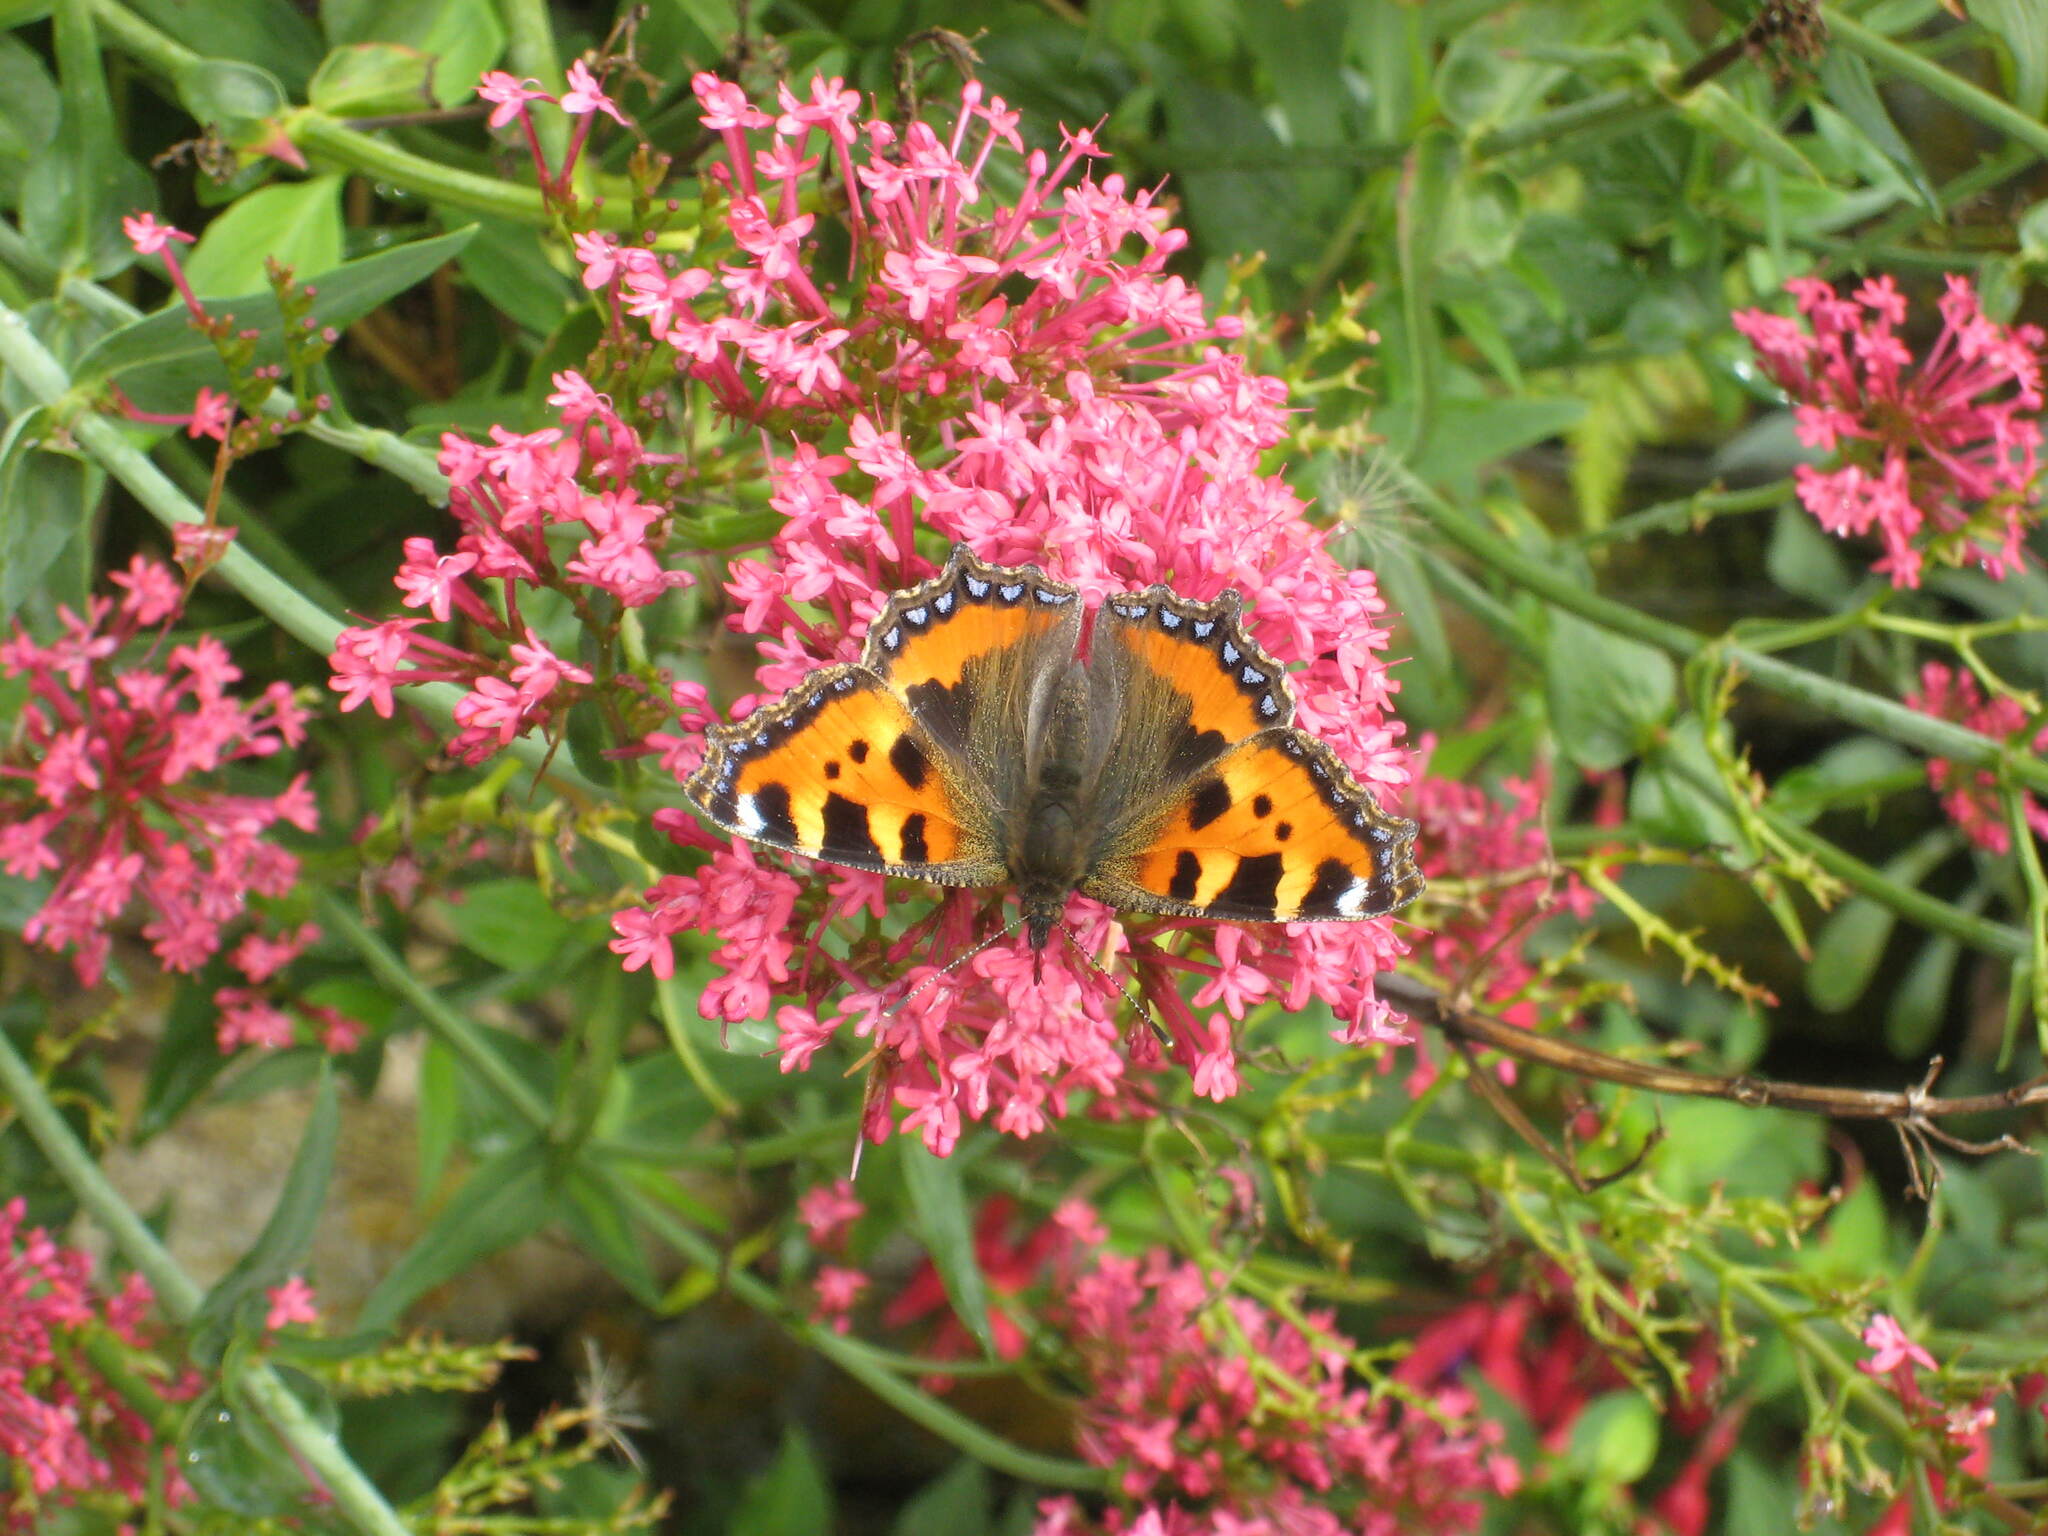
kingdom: Animalia
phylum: Arthropoda
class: Insecta
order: Lepidoptera
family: Nymphalidae
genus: Aglais
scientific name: Aglais urticae
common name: Small tortoiseshell
